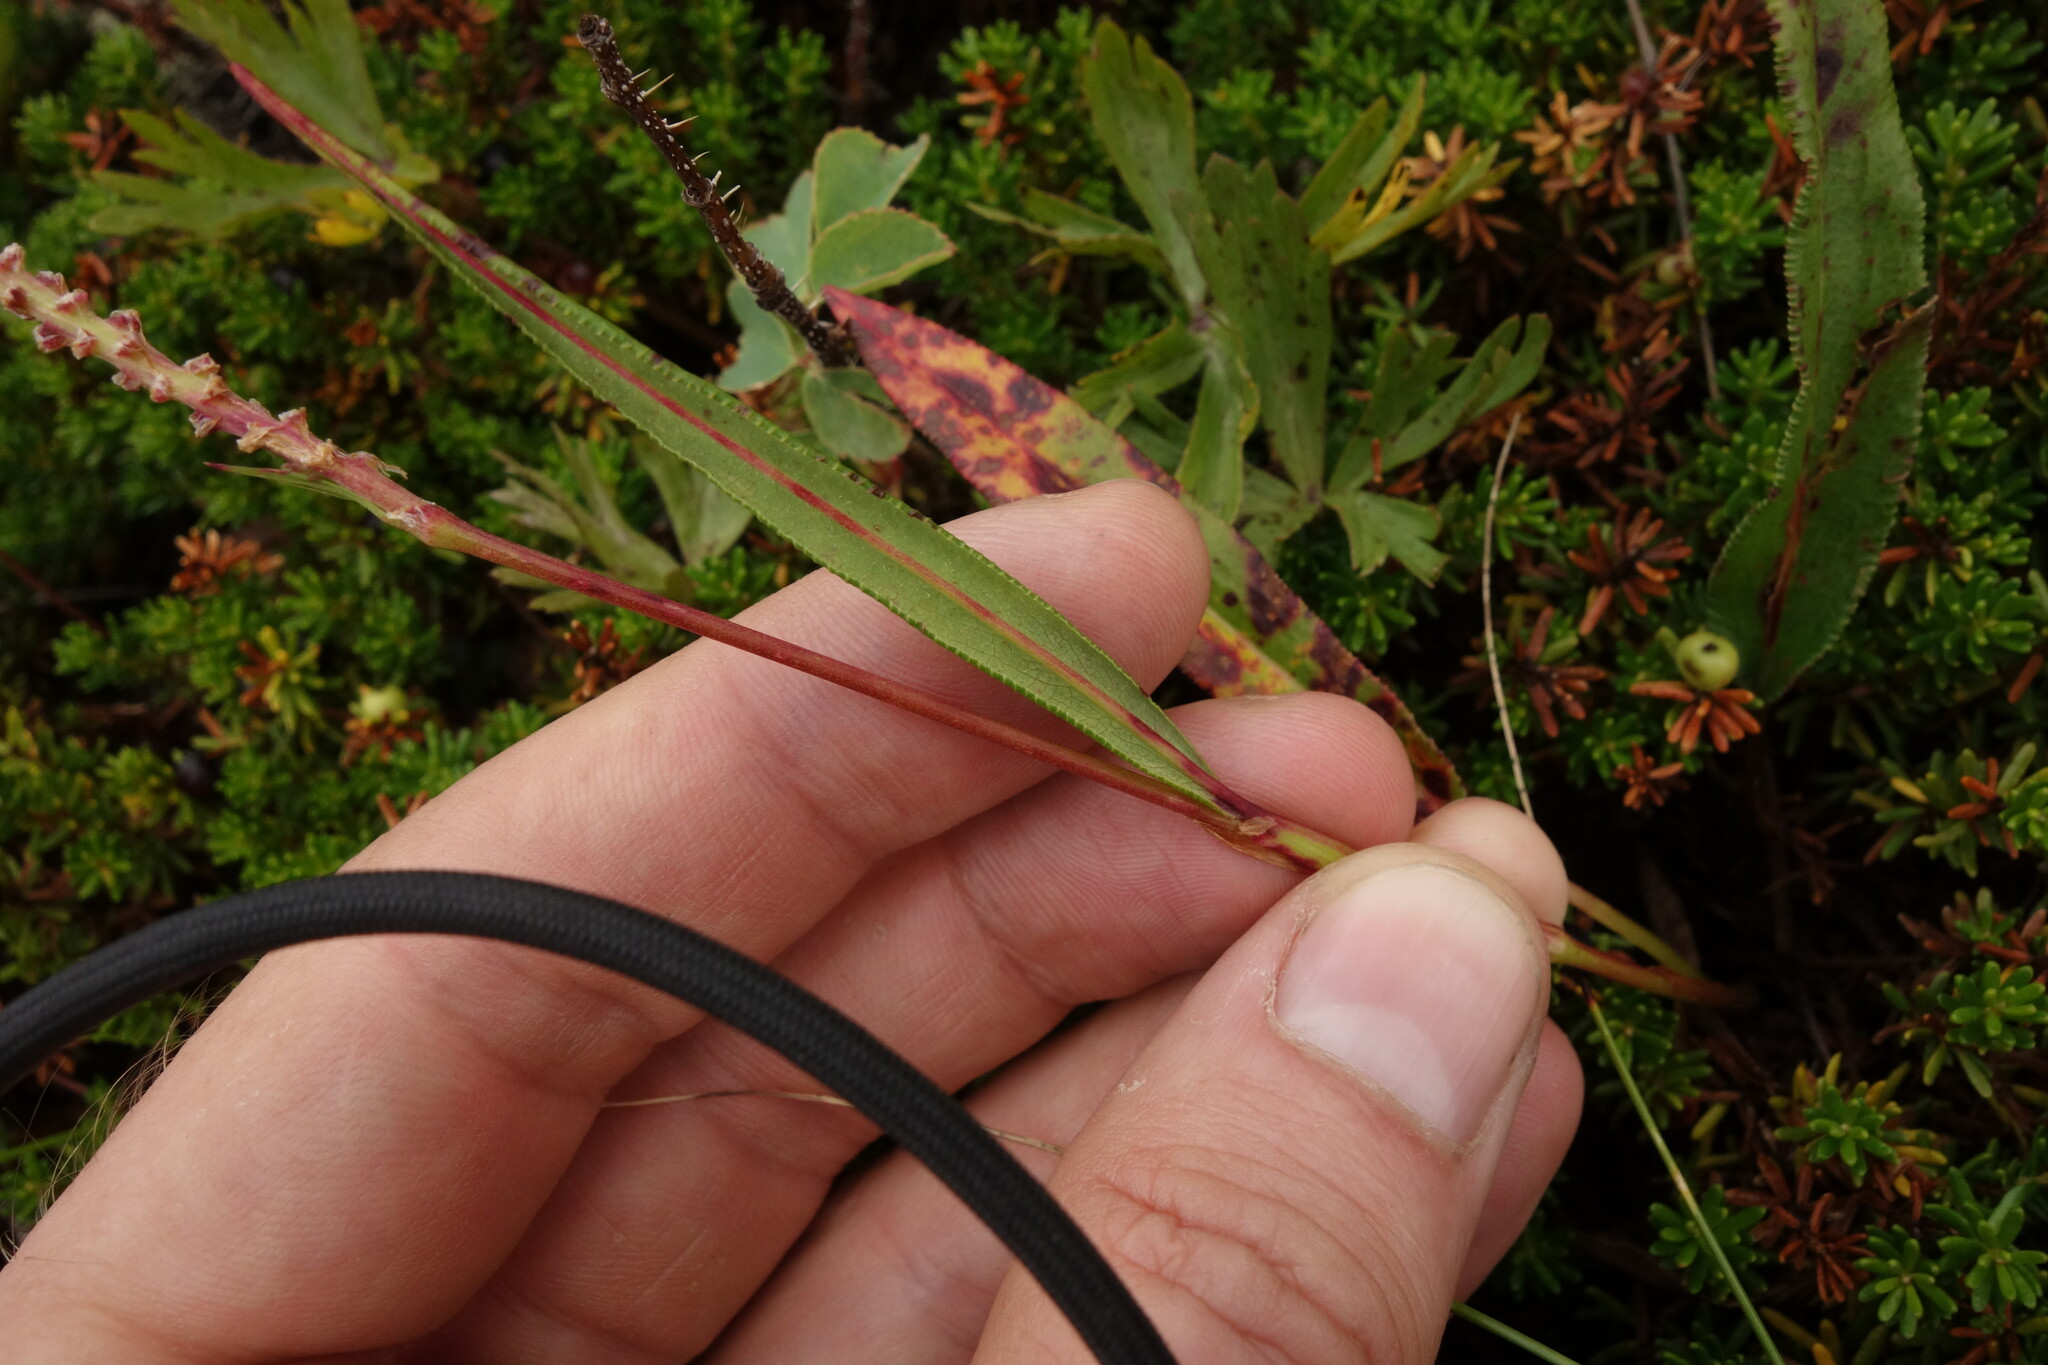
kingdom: Plantae
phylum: Tracheophyta
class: Magnoliopsida
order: Caryophyllales
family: Polygonaceae
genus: Bistorta
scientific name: Bistorta vivipara
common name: Alpine bistort
